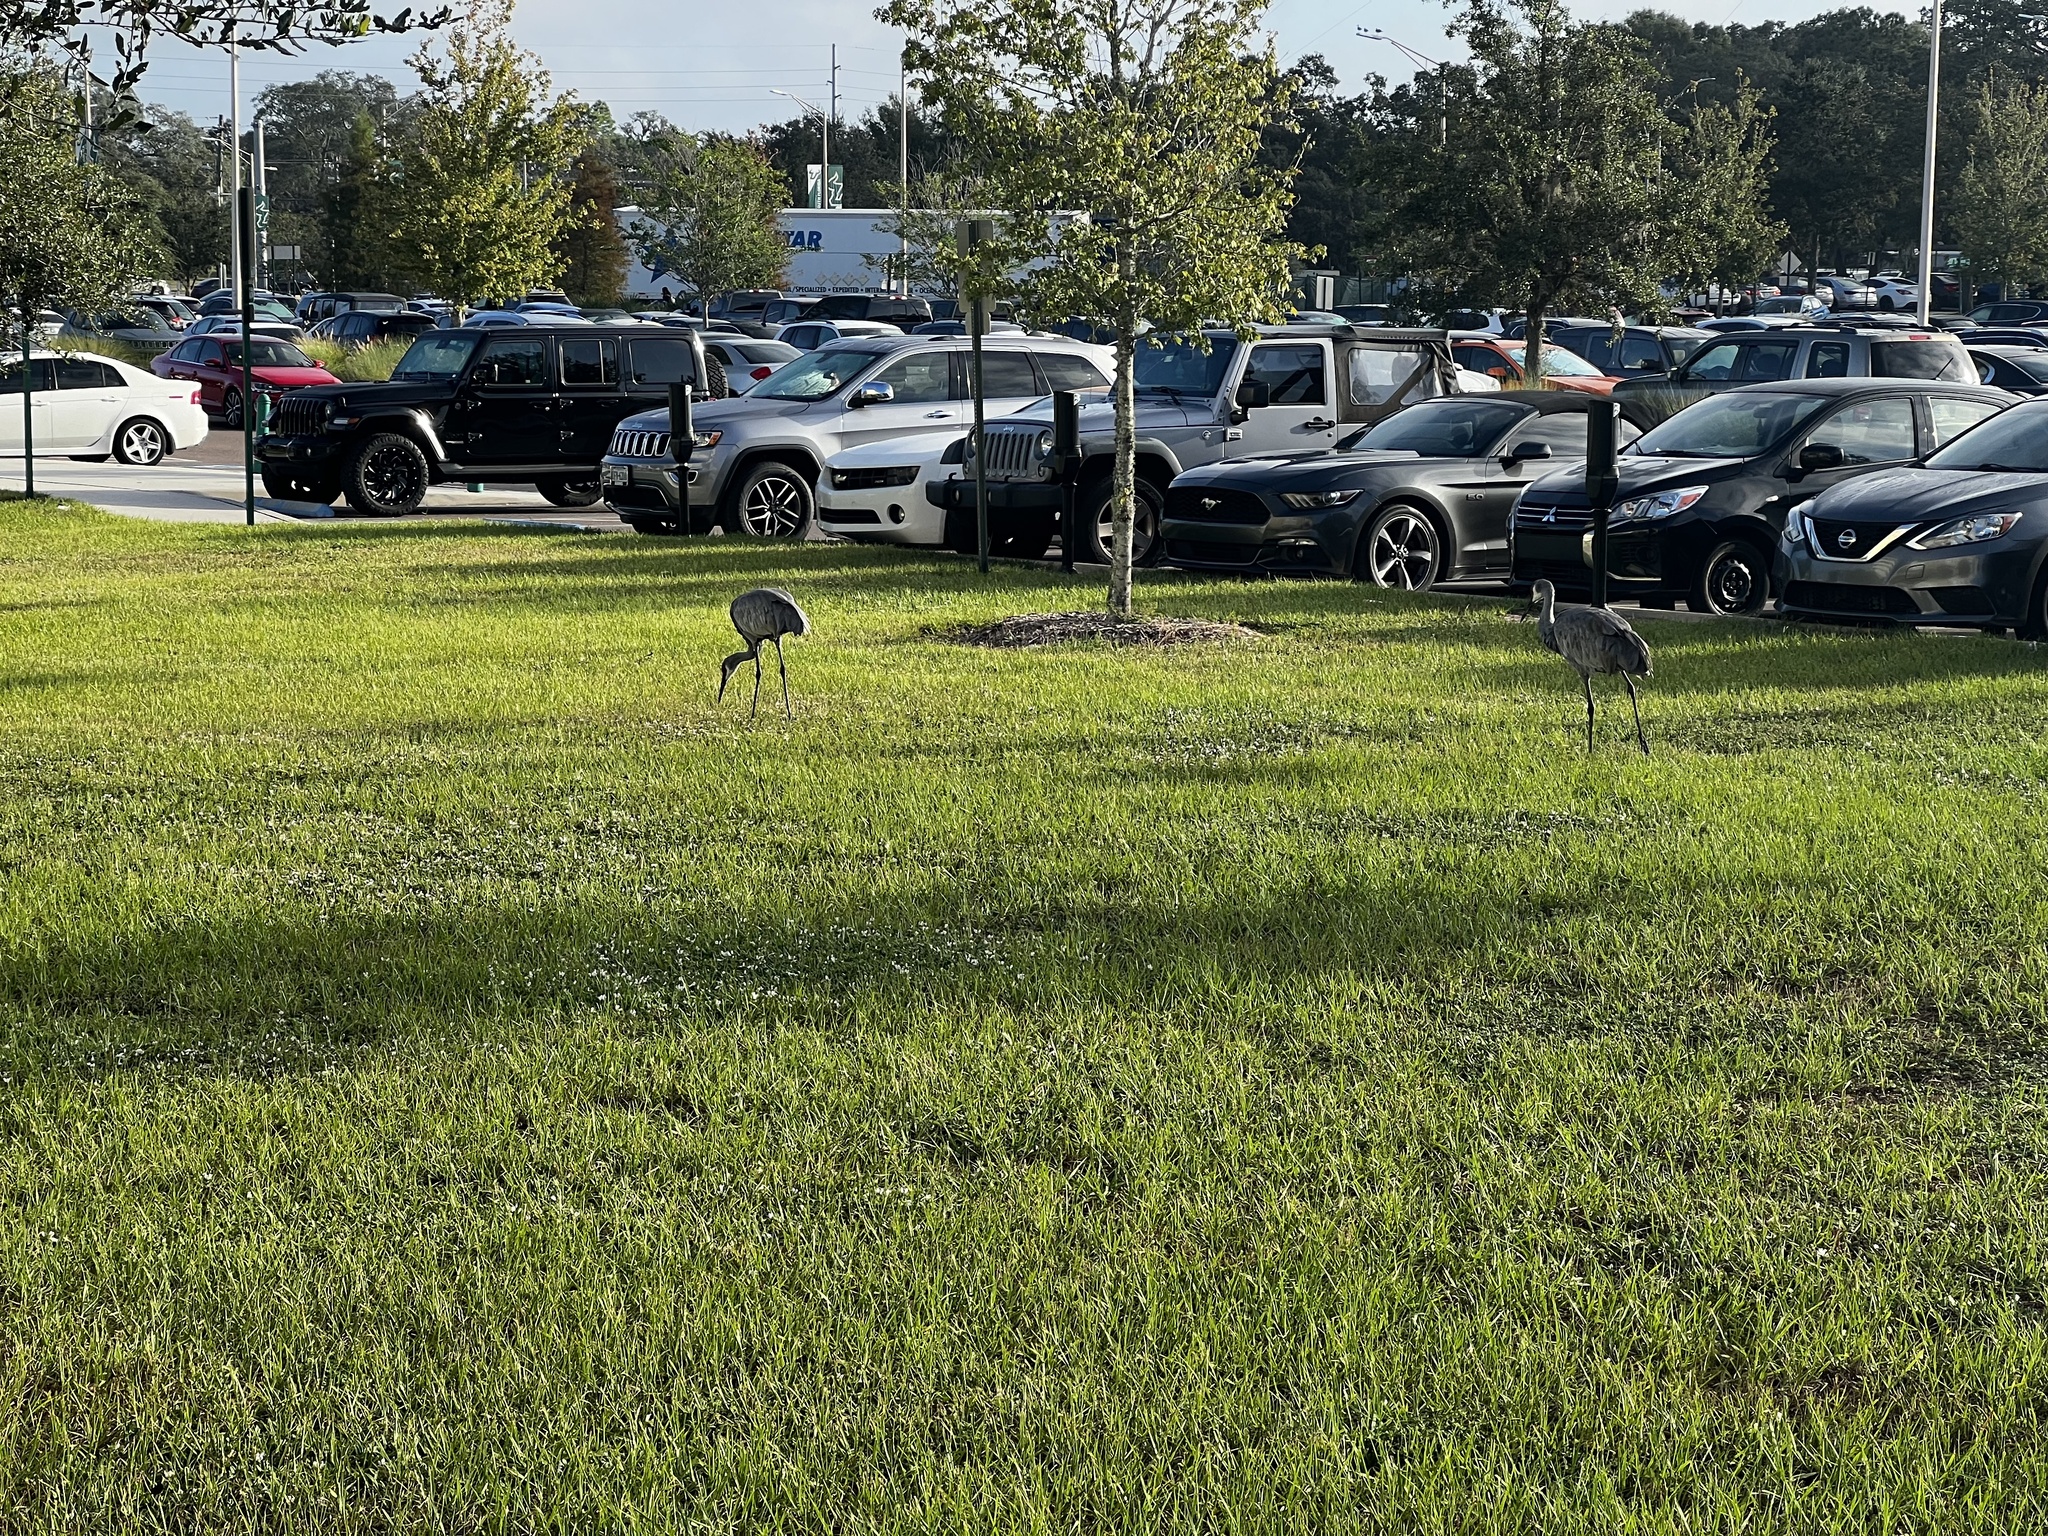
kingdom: Animalia
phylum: Chordata
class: Aves
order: Gruiformes
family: Gruidae
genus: Grus
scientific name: Grus canadensis
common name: Sandhill crane
